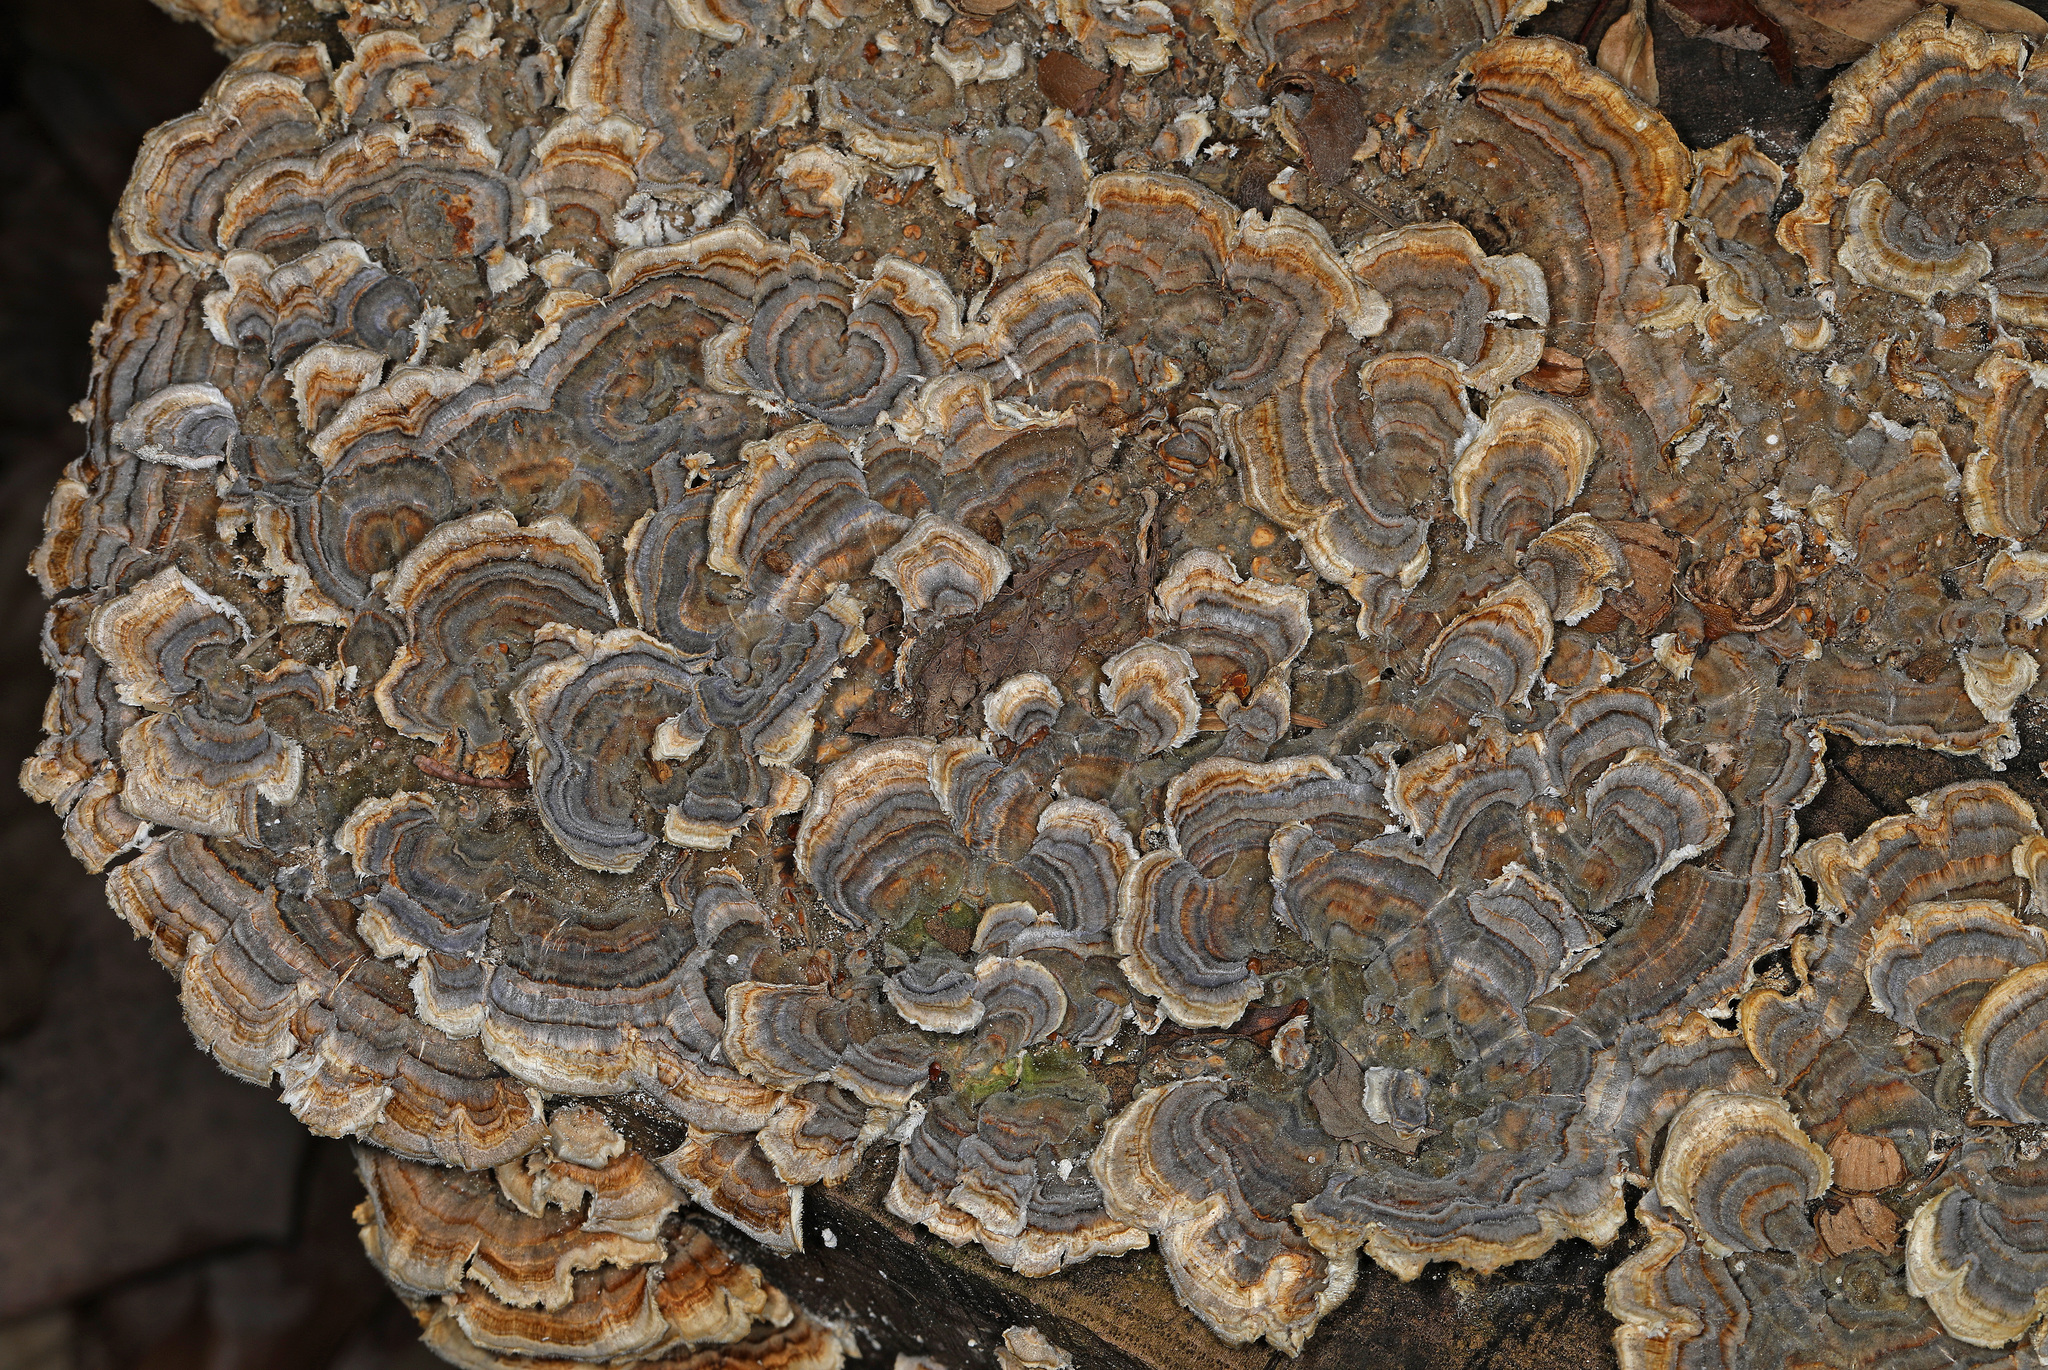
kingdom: Fungi
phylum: Basidiomycota
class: Agaricomycetes
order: Polyporales
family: Polyporaceae
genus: Trametes
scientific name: Trametes versicolor
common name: Turkeytail
